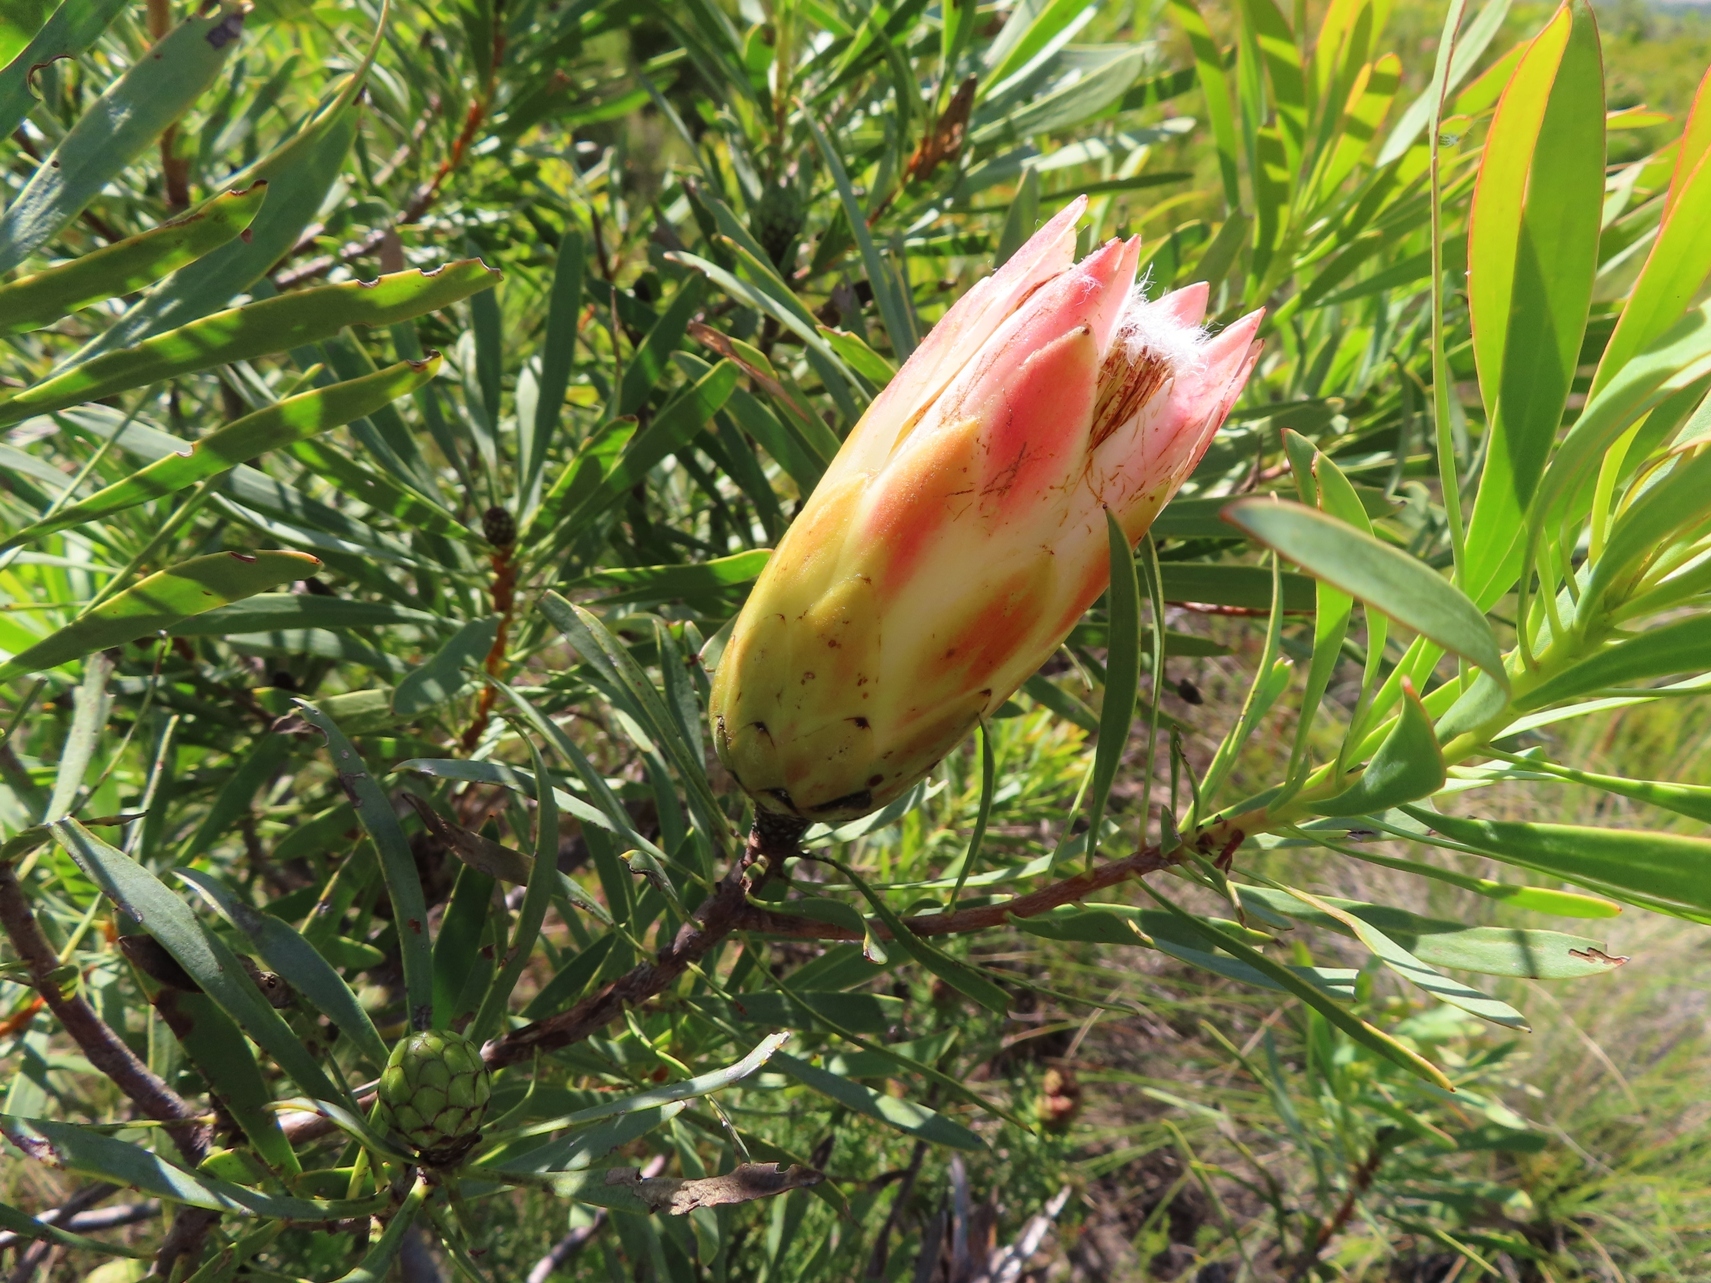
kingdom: Plantae
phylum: Tracheophyta
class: Magnoliopsida
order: Proteales
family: Proteaceae
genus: Protea
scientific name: Protea repens
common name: Sugarbush
